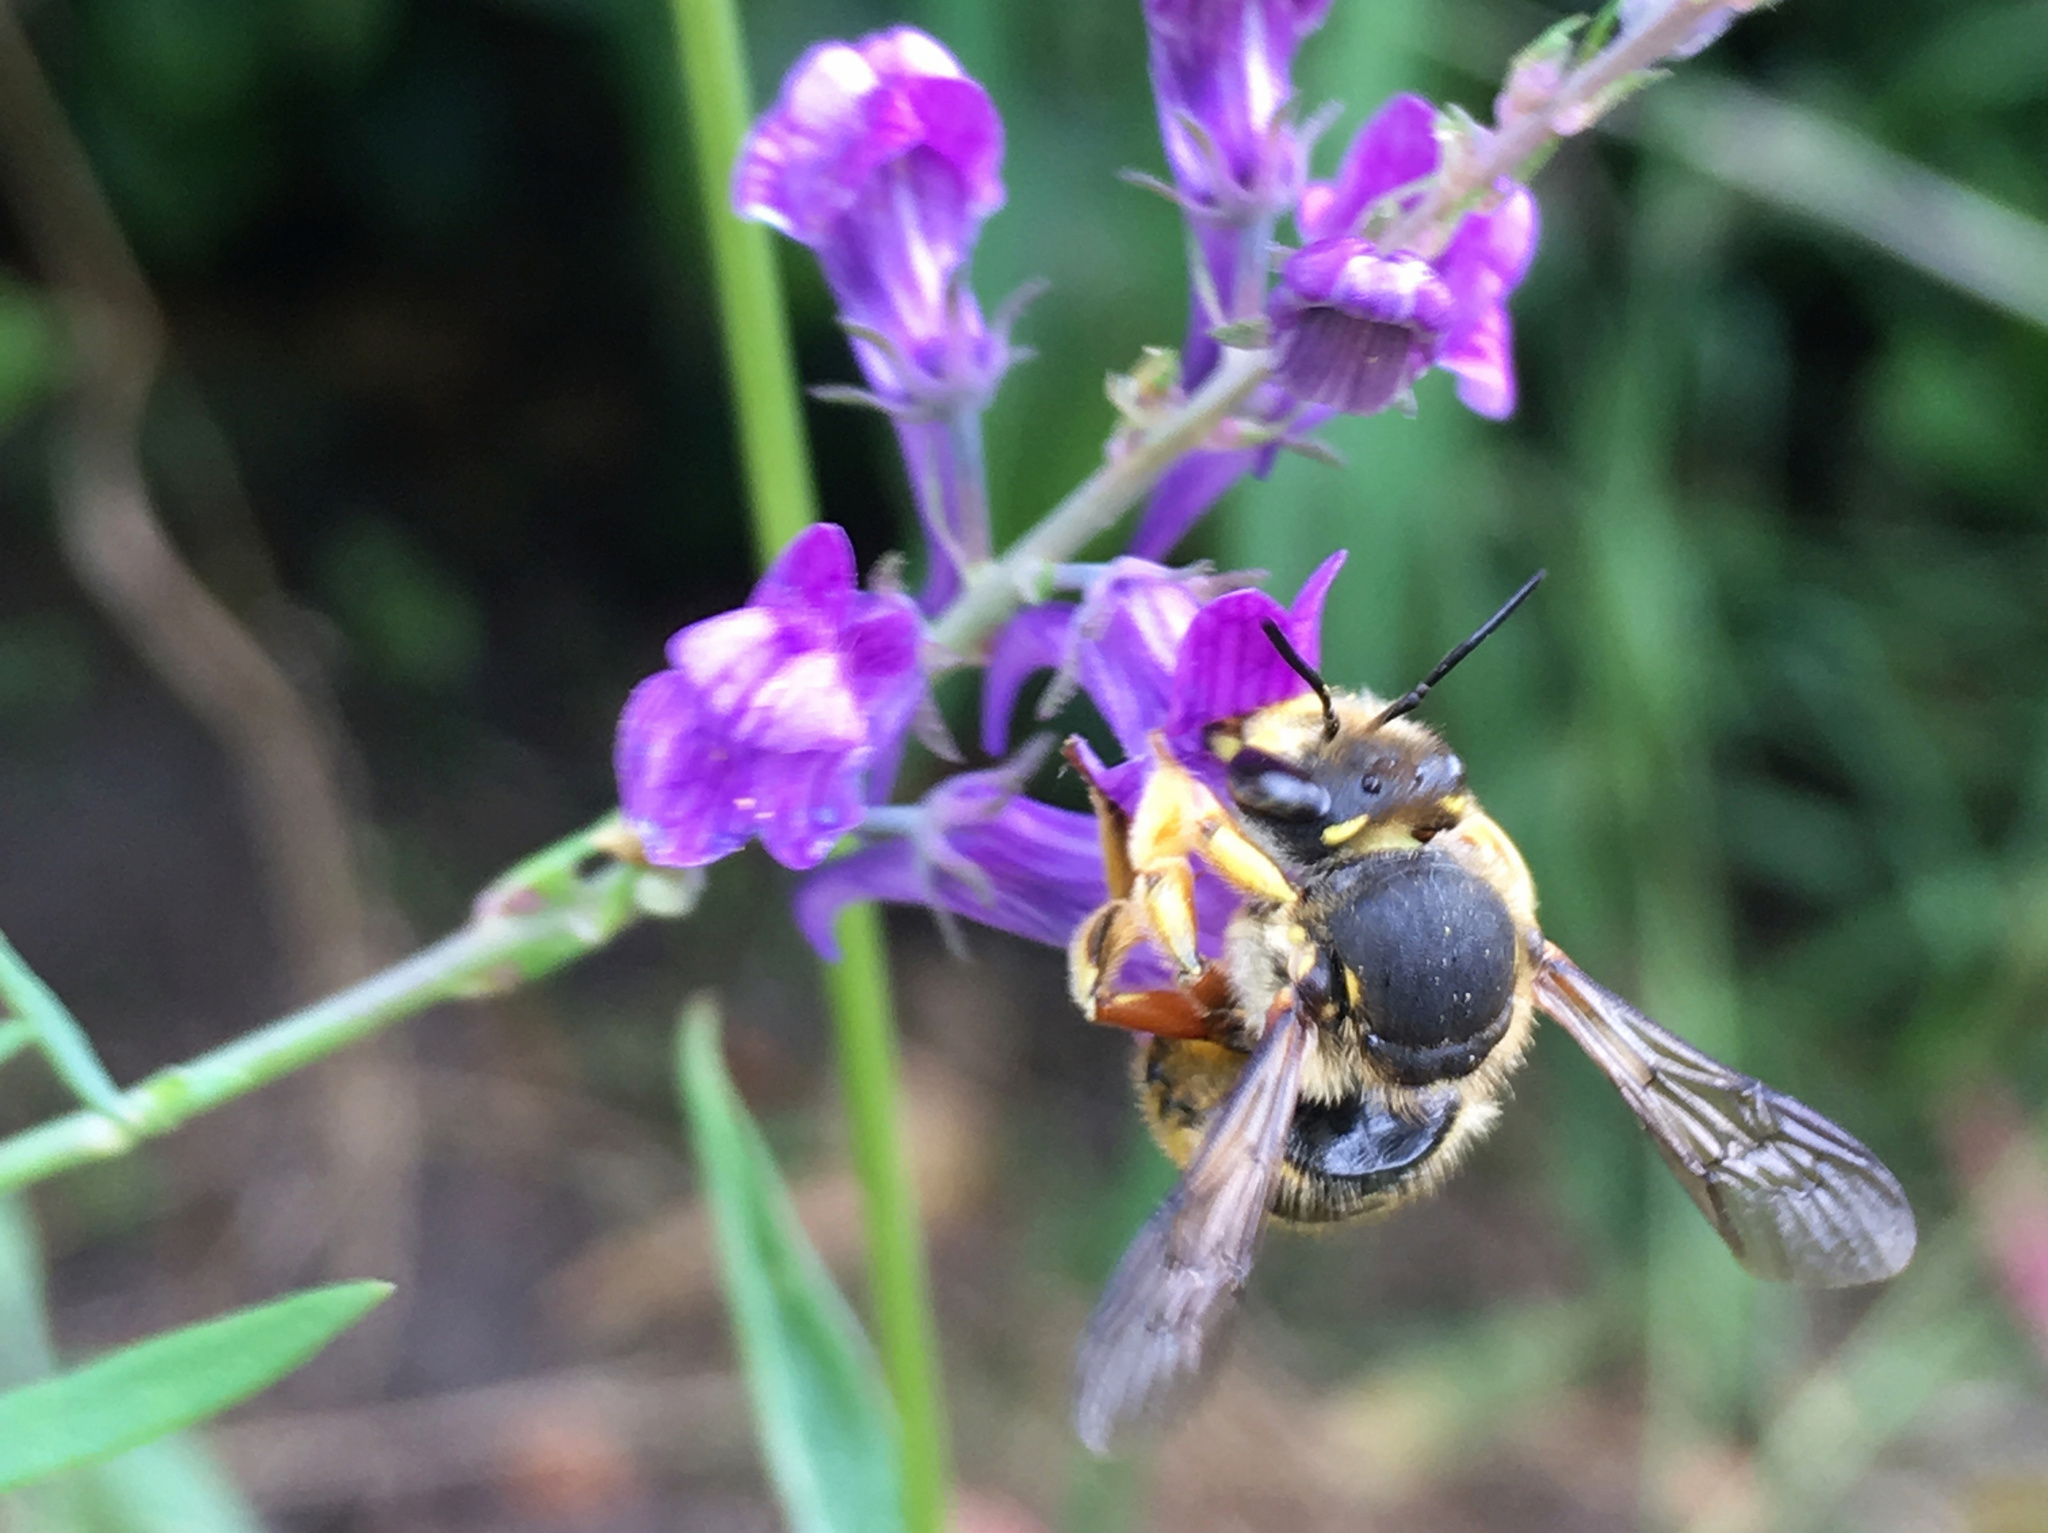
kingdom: Animalia
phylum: Arthropoda
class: Insecta
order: Hymenoptera
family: Megachilidae
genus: Anthidium
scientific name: Anthidium manicatum
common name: Wool carder bee
